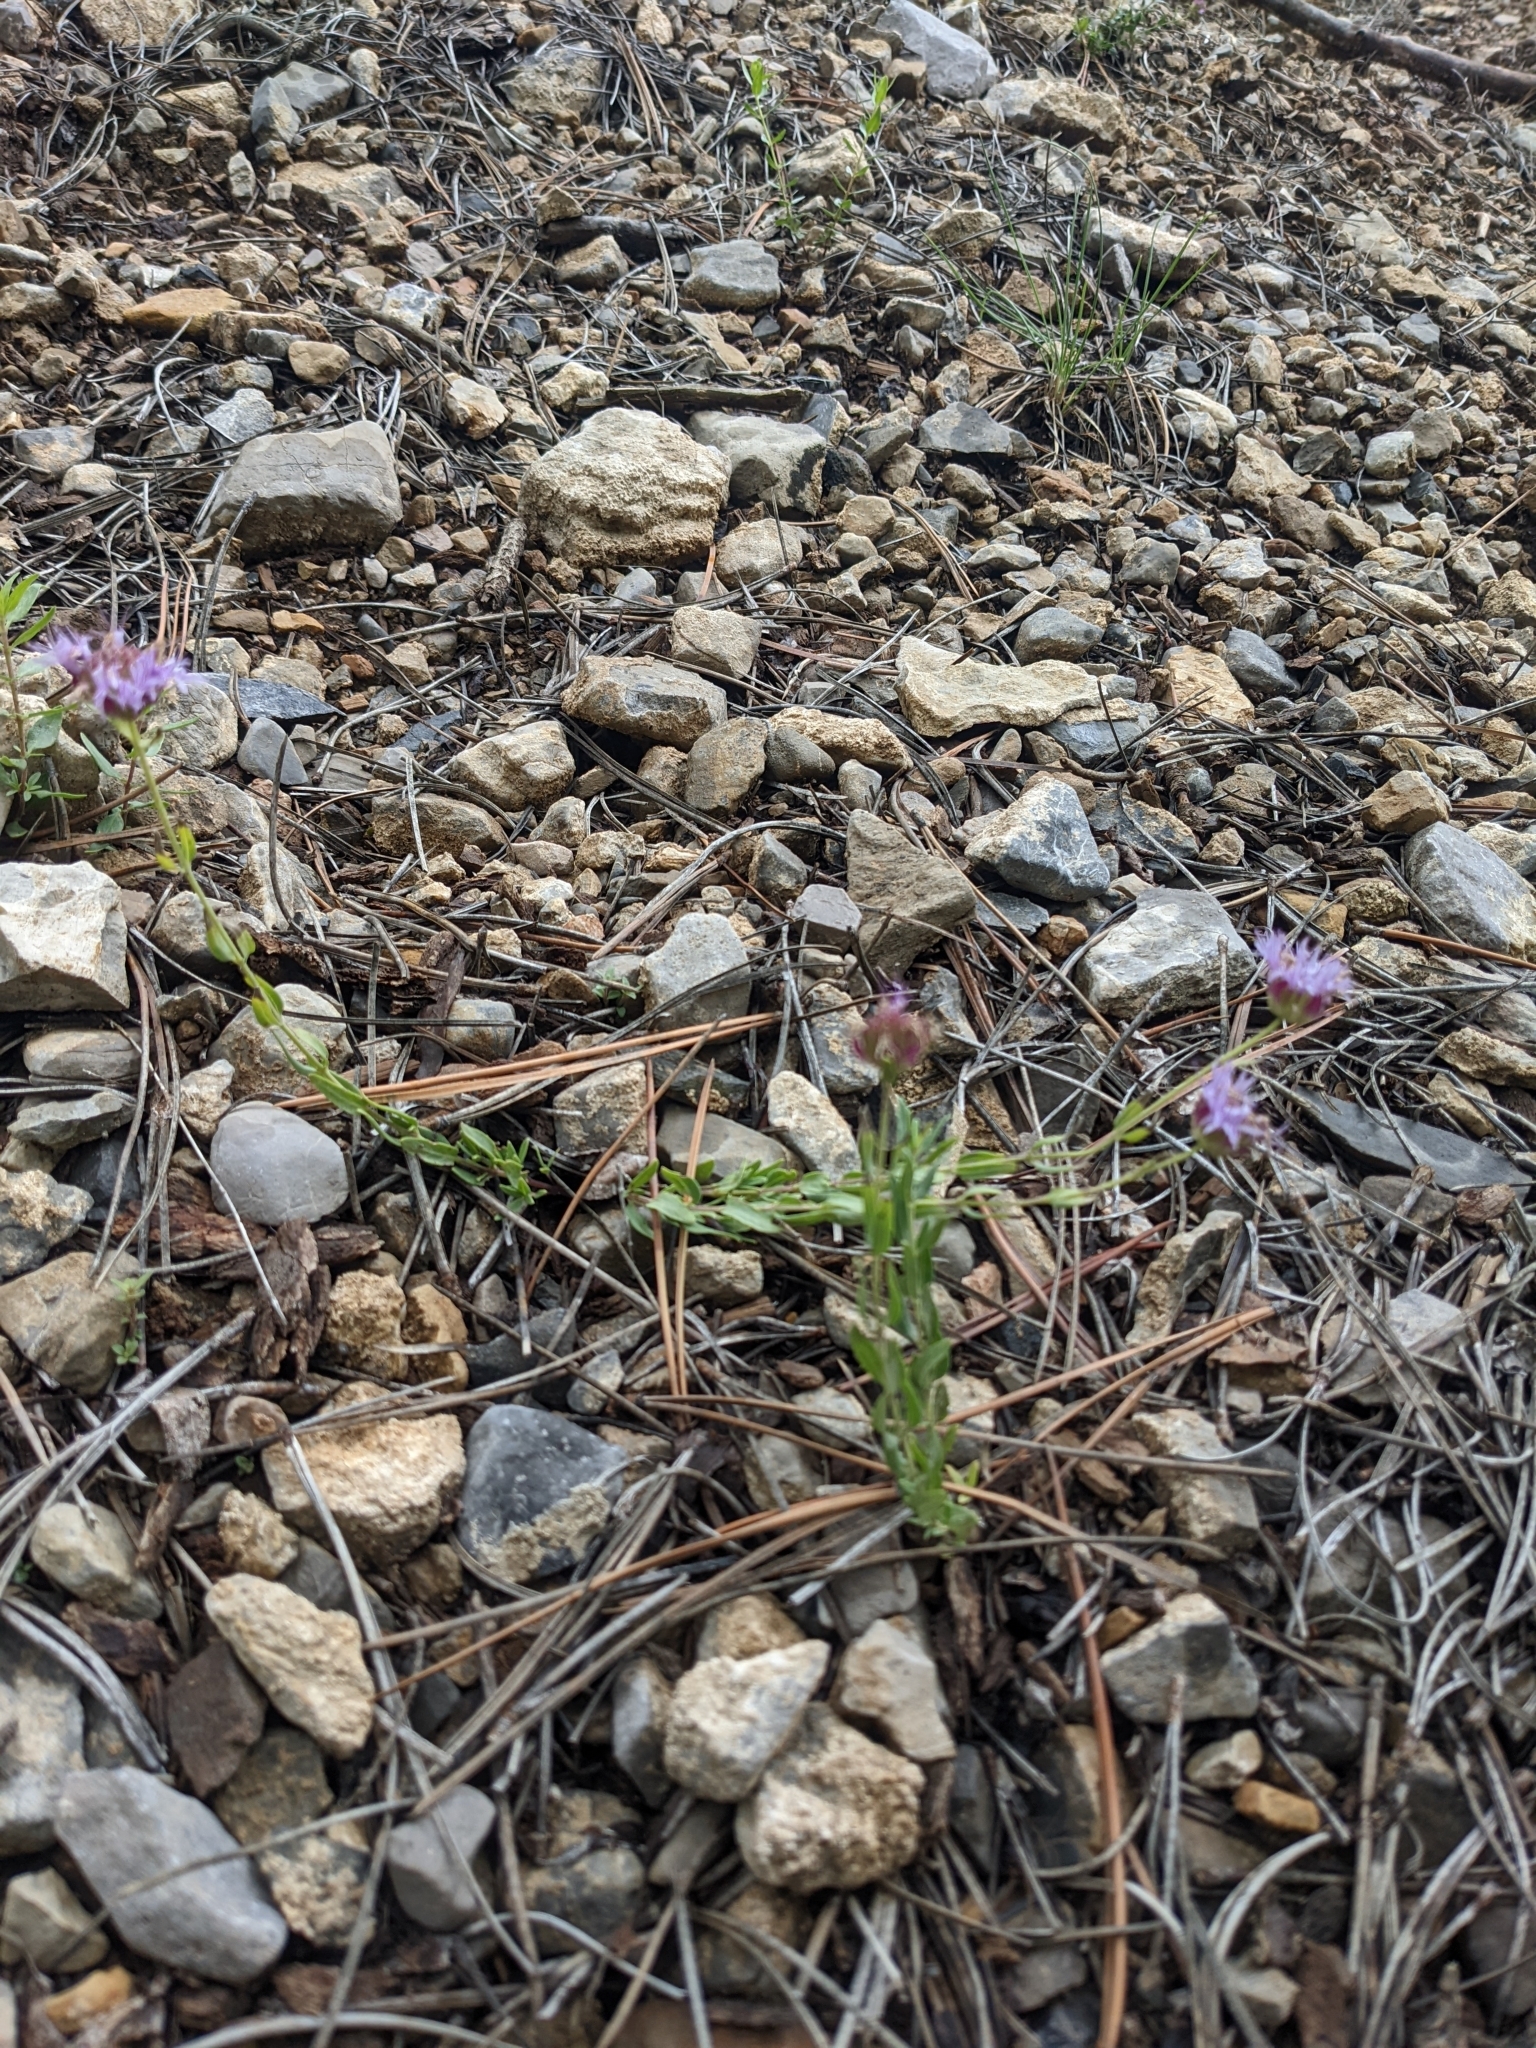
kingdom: Plantae
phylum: Tracheophyta
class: Magnoliopsida
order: Lamiales
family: Lamiaceae
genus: Monardella
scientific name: Monardella odoratissima
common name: Pacific monardella
